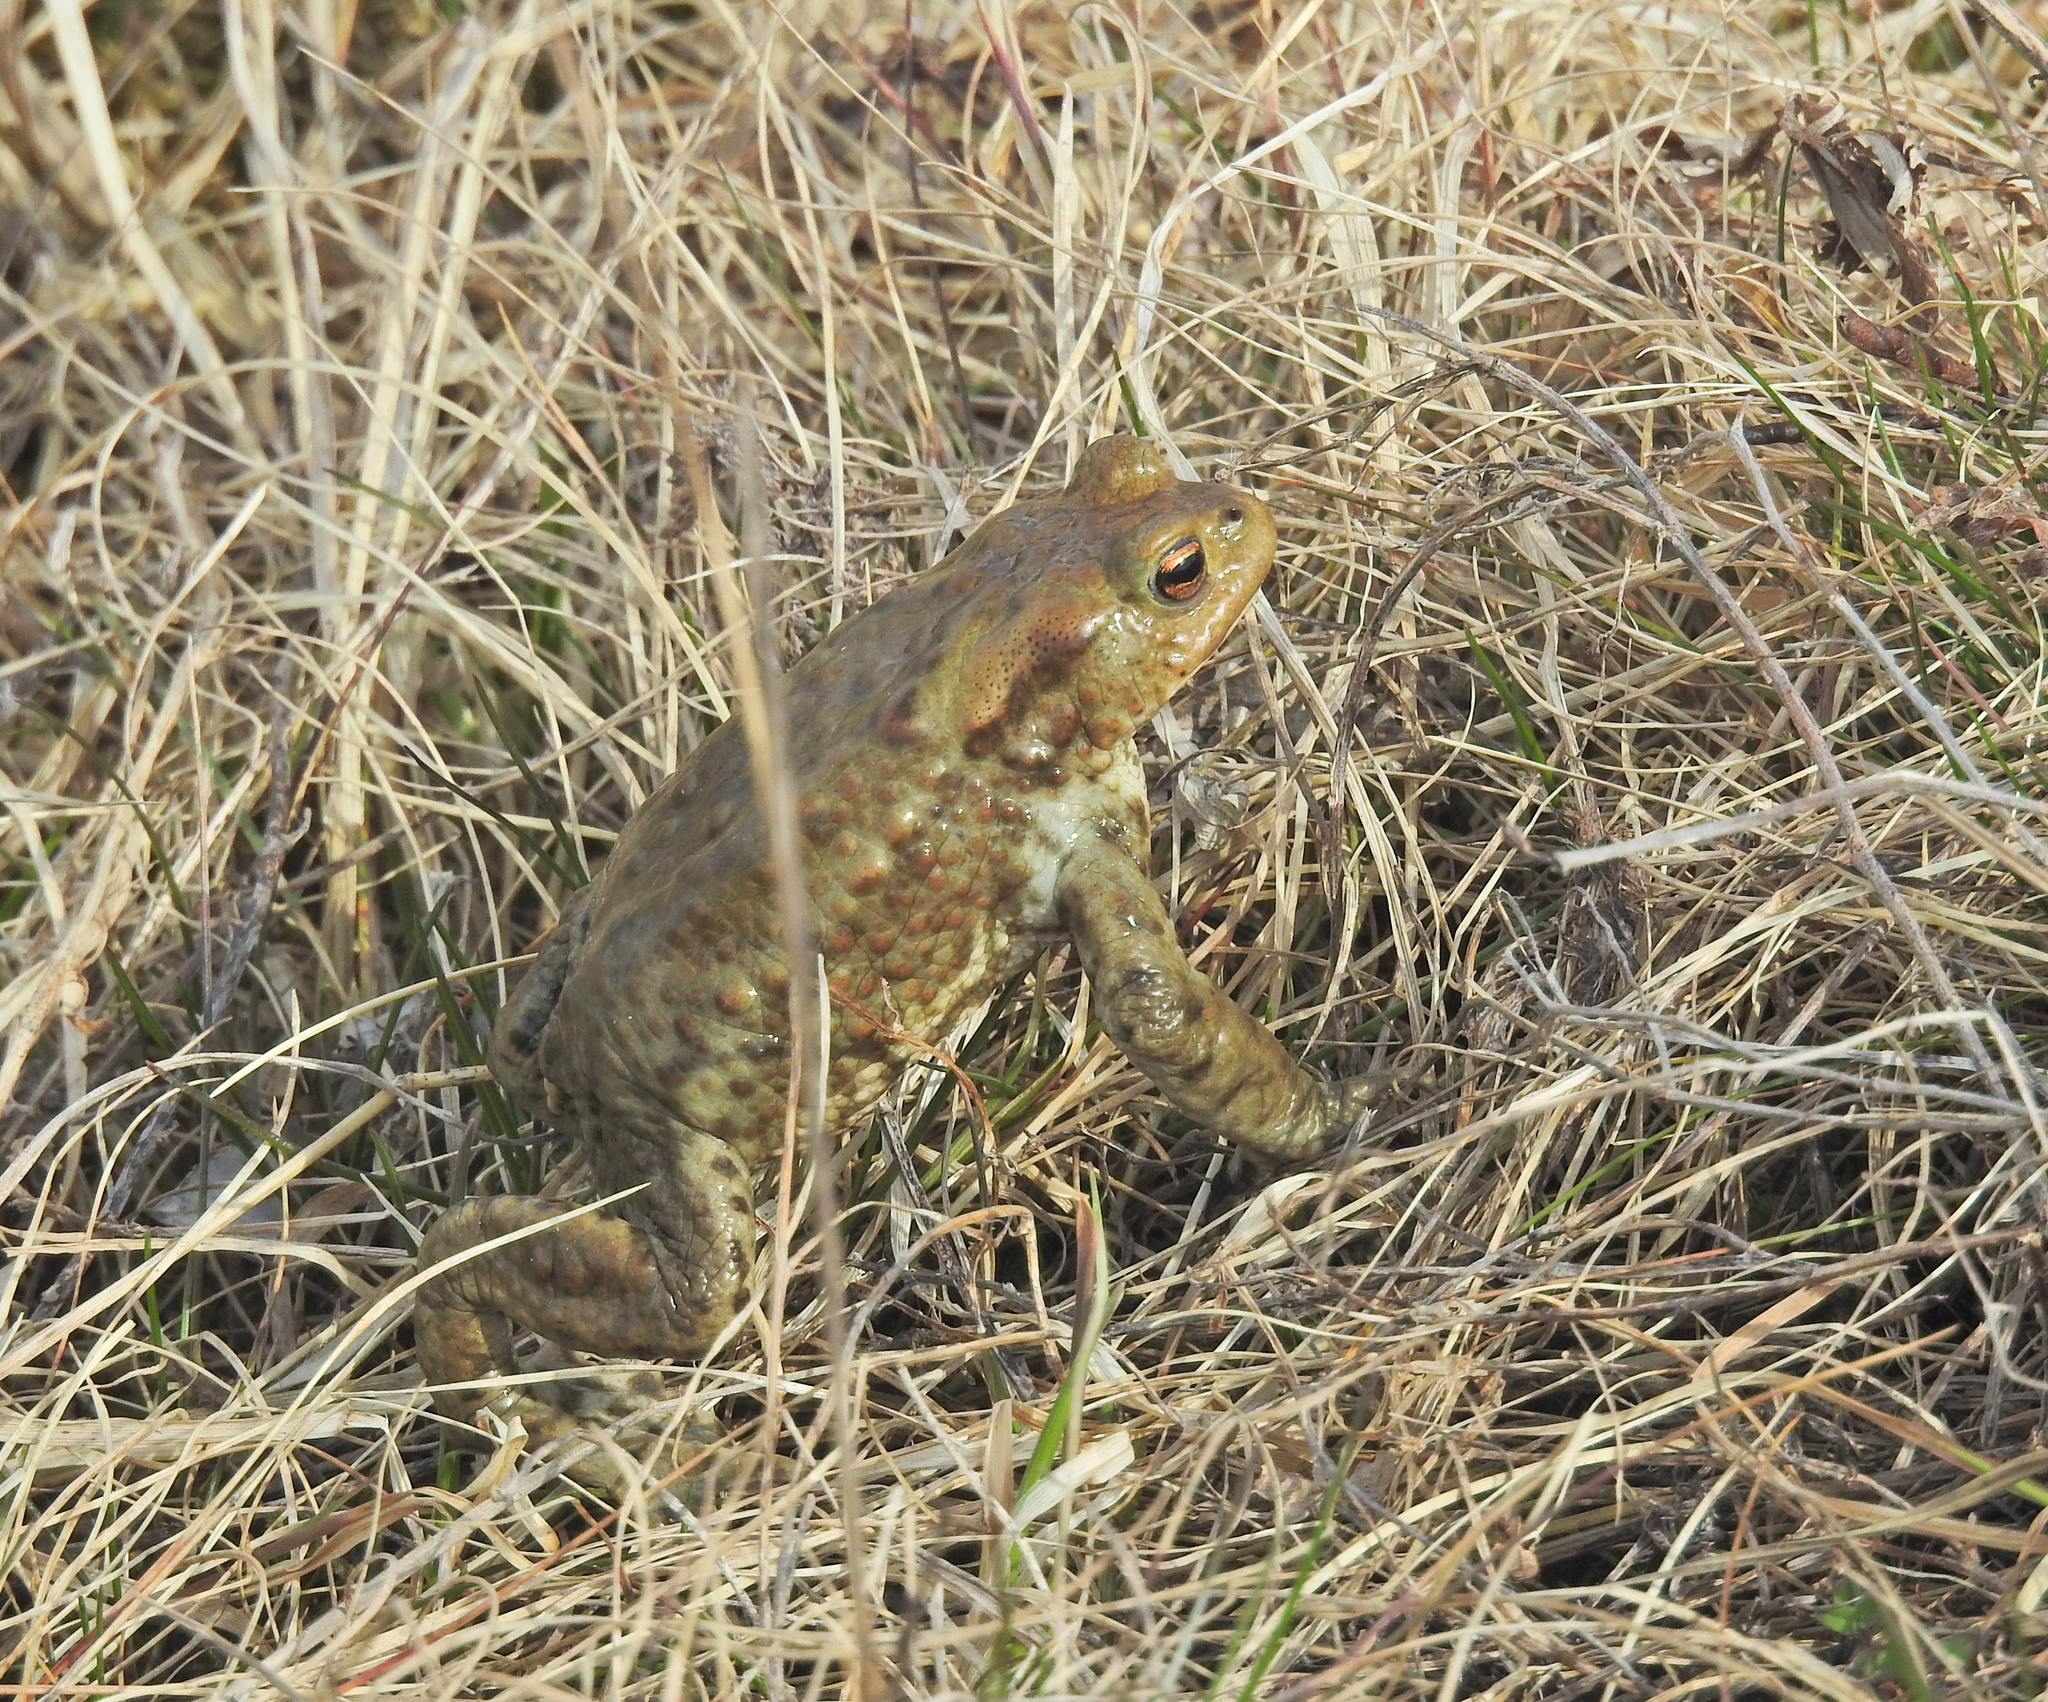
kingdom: Animalia
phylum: Chordata
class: Amphibia
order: Anura
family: Bufonidae
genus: Bufo
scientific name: Bufo bufo
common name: Common toad
